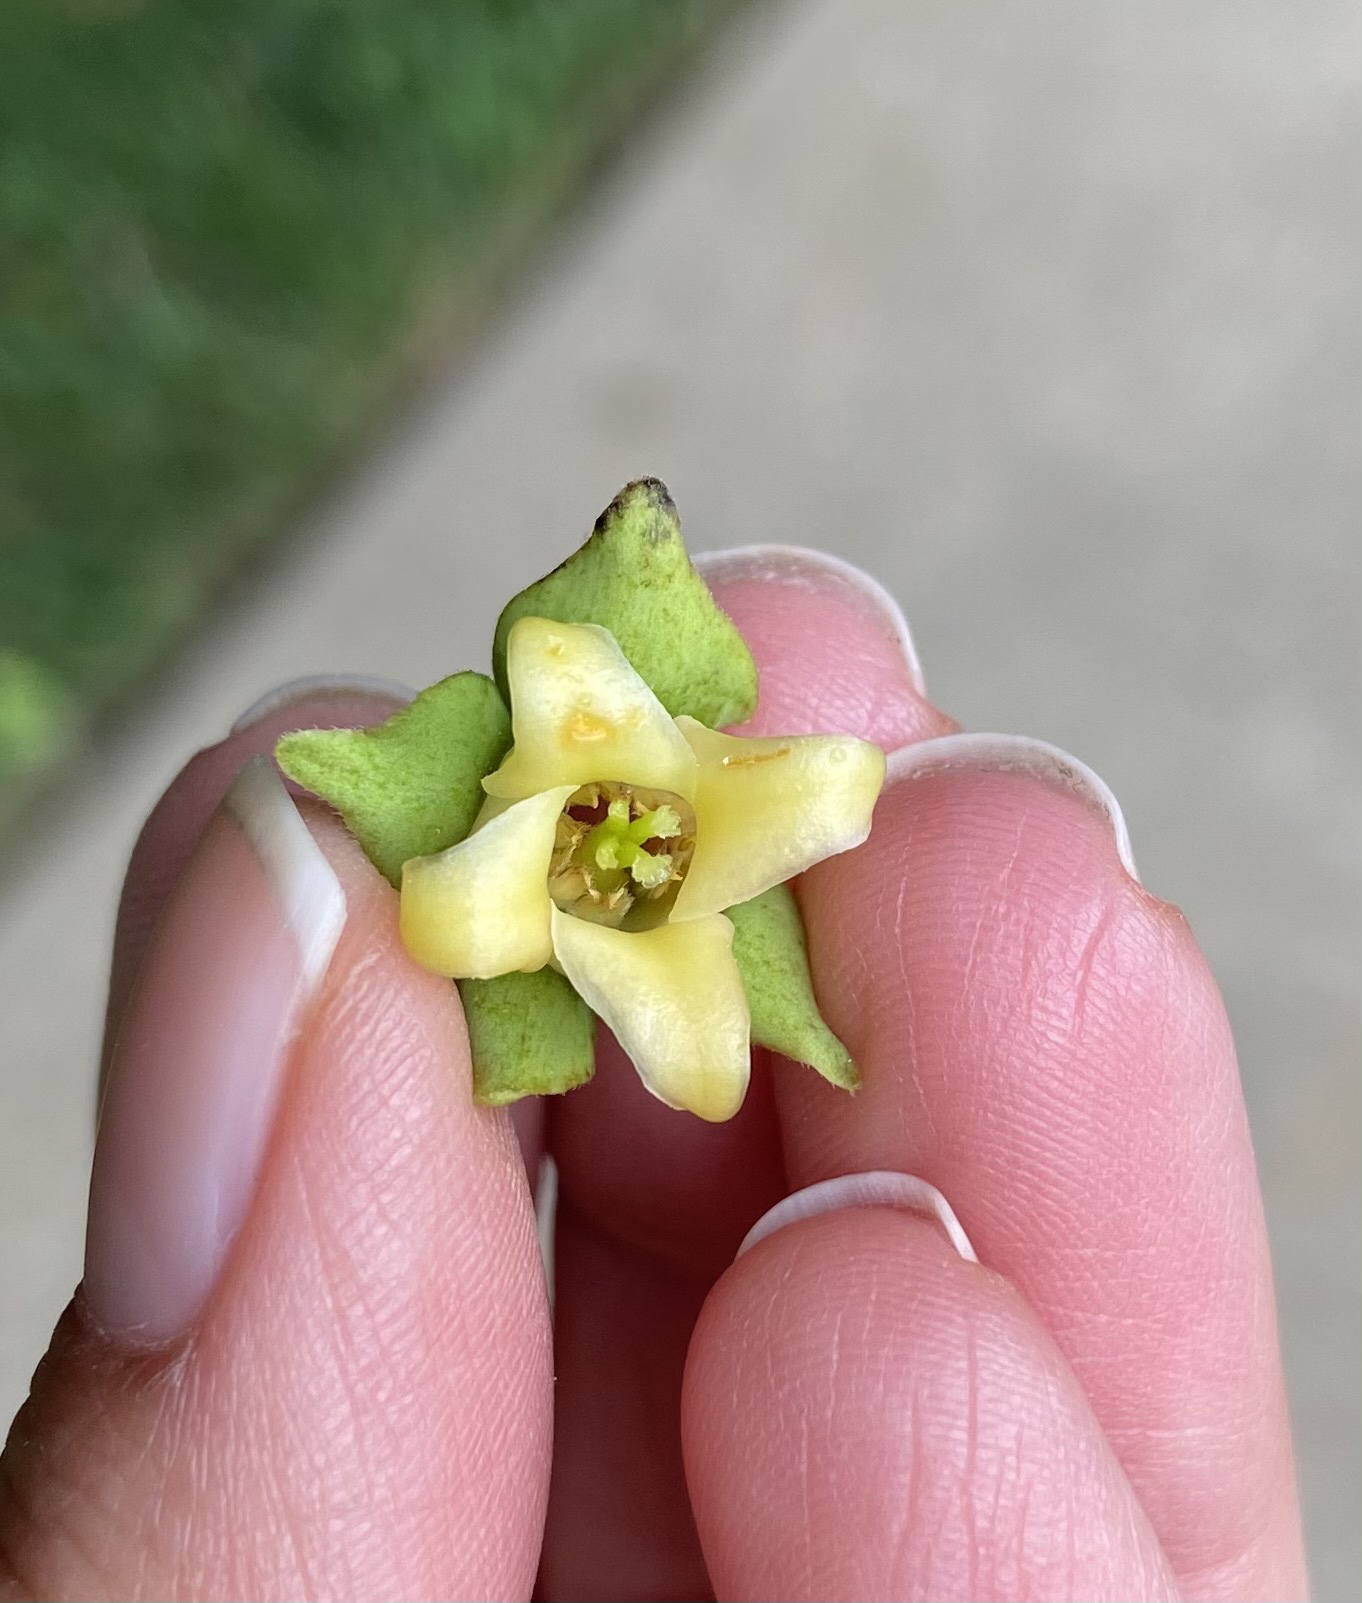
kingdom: Plantae
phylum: Tracheophyta
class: Magnoliopsida
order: Ericales
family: Ebenaceae
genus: Diospyros
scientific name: Diospyros virginiana
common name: Persimmon
